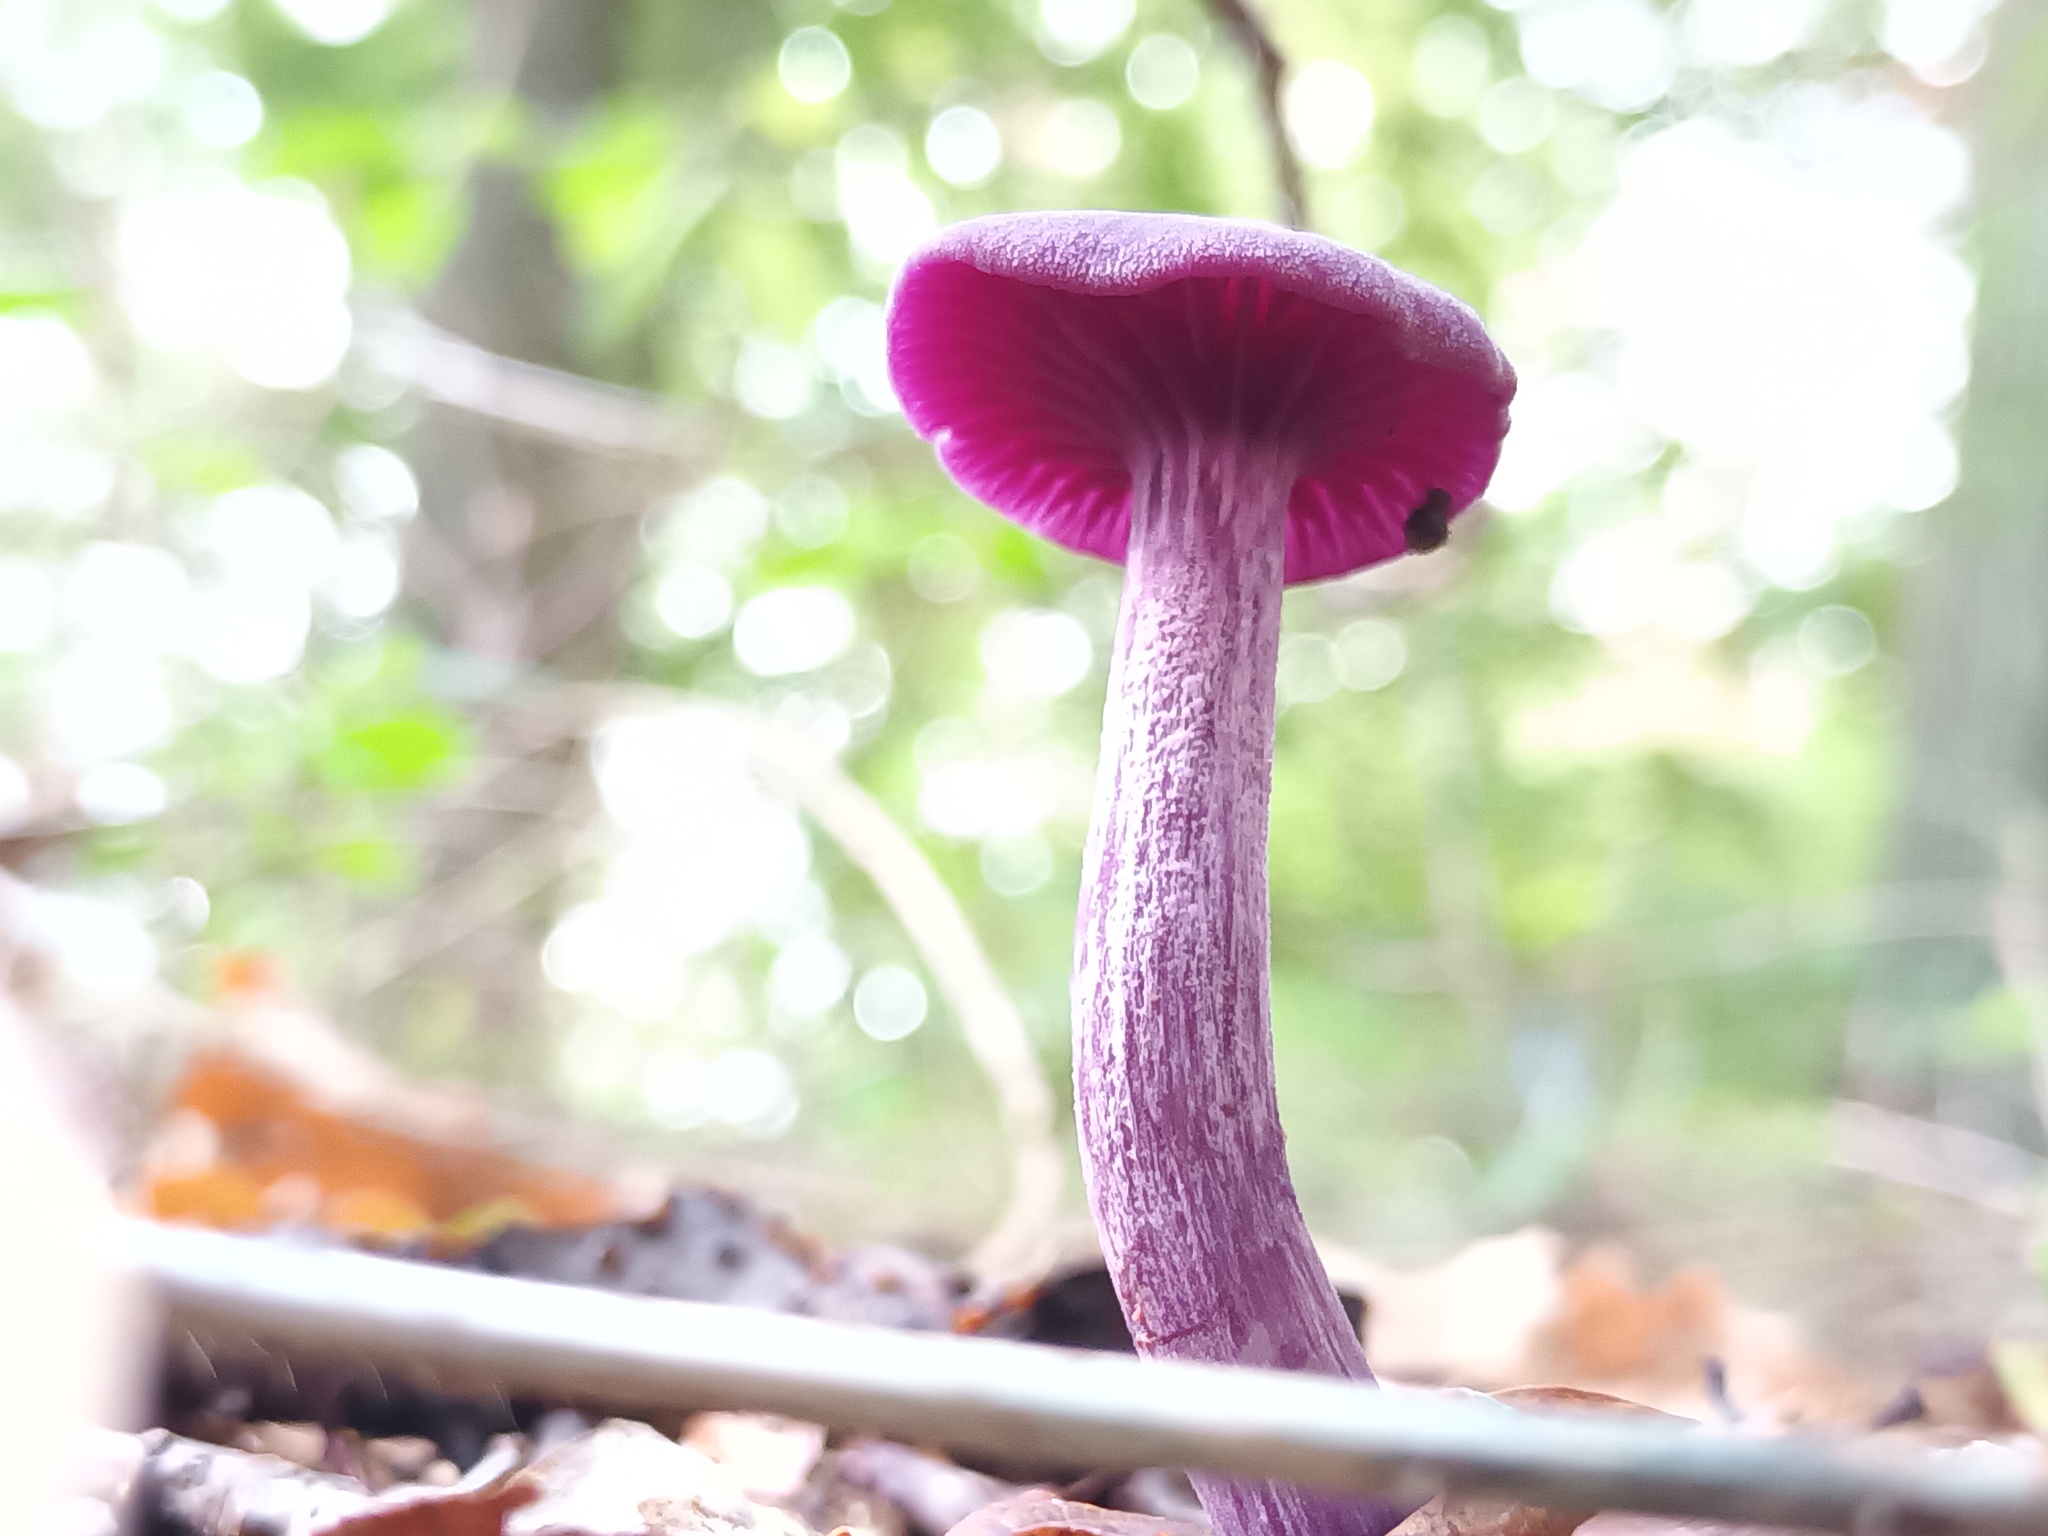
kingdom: Fungi
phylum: Basidiomycota
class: Agaricomycetes
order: Agaricales
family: Hydnangiaceae
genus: Laccaria
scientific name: Laccaria amethystina
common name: Amethyst deceiver
